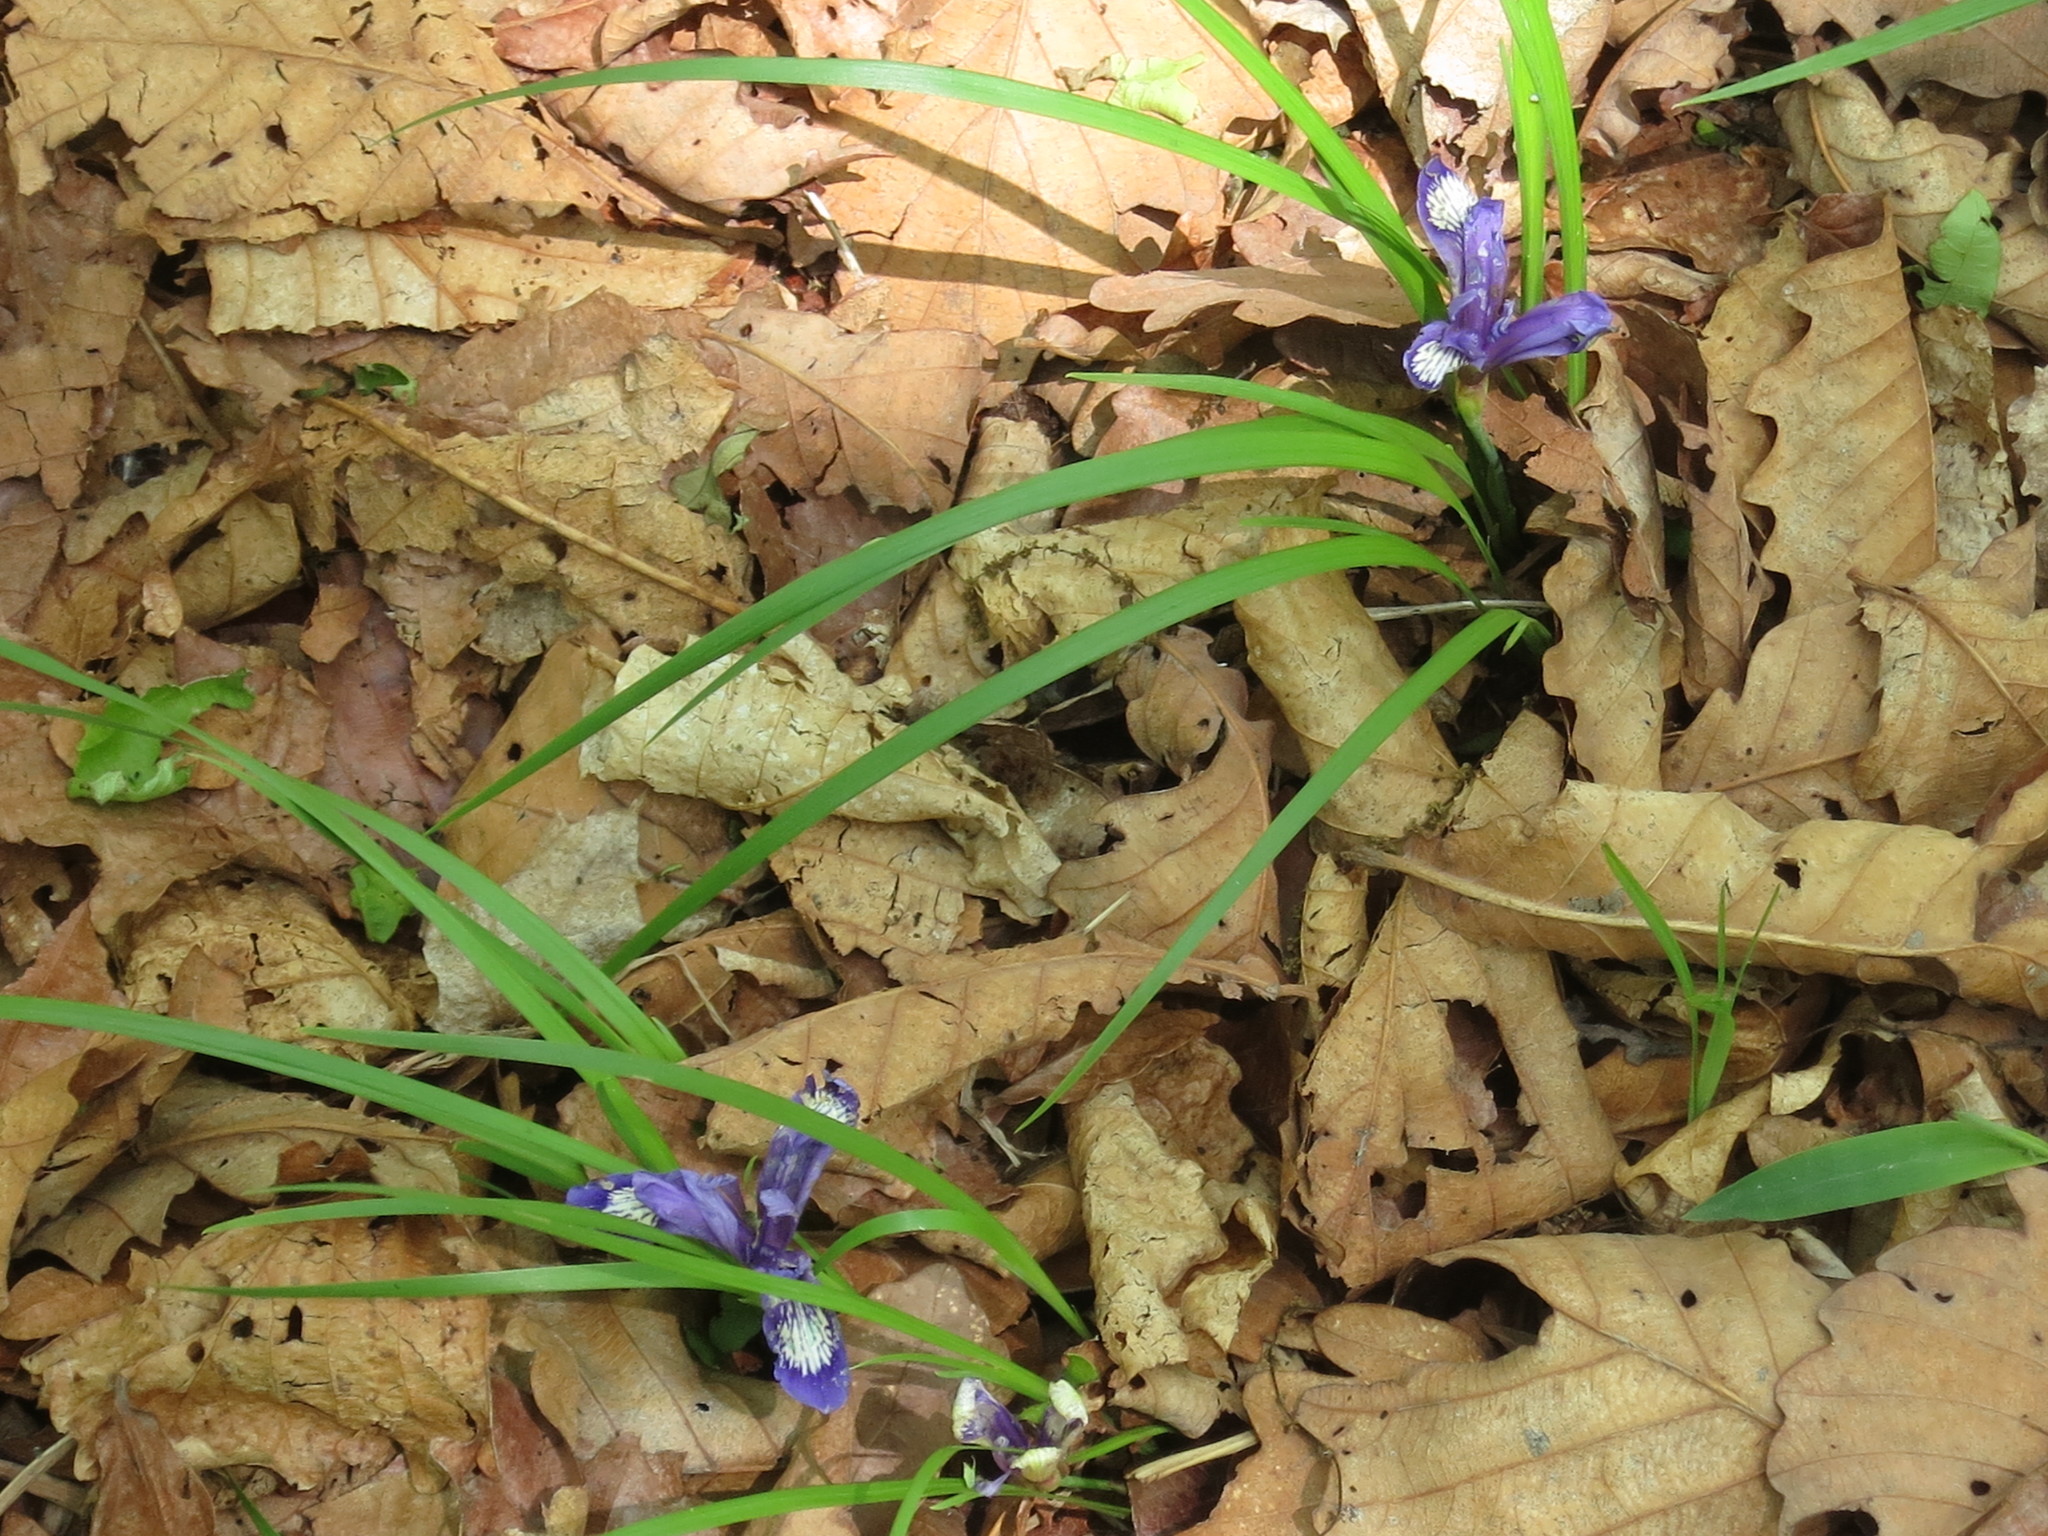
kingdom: Plantae
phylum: Tracheophyta
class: Liliopsida
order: Asparagales
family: Iridaceae
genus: Iris
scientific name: Iris uniflora
